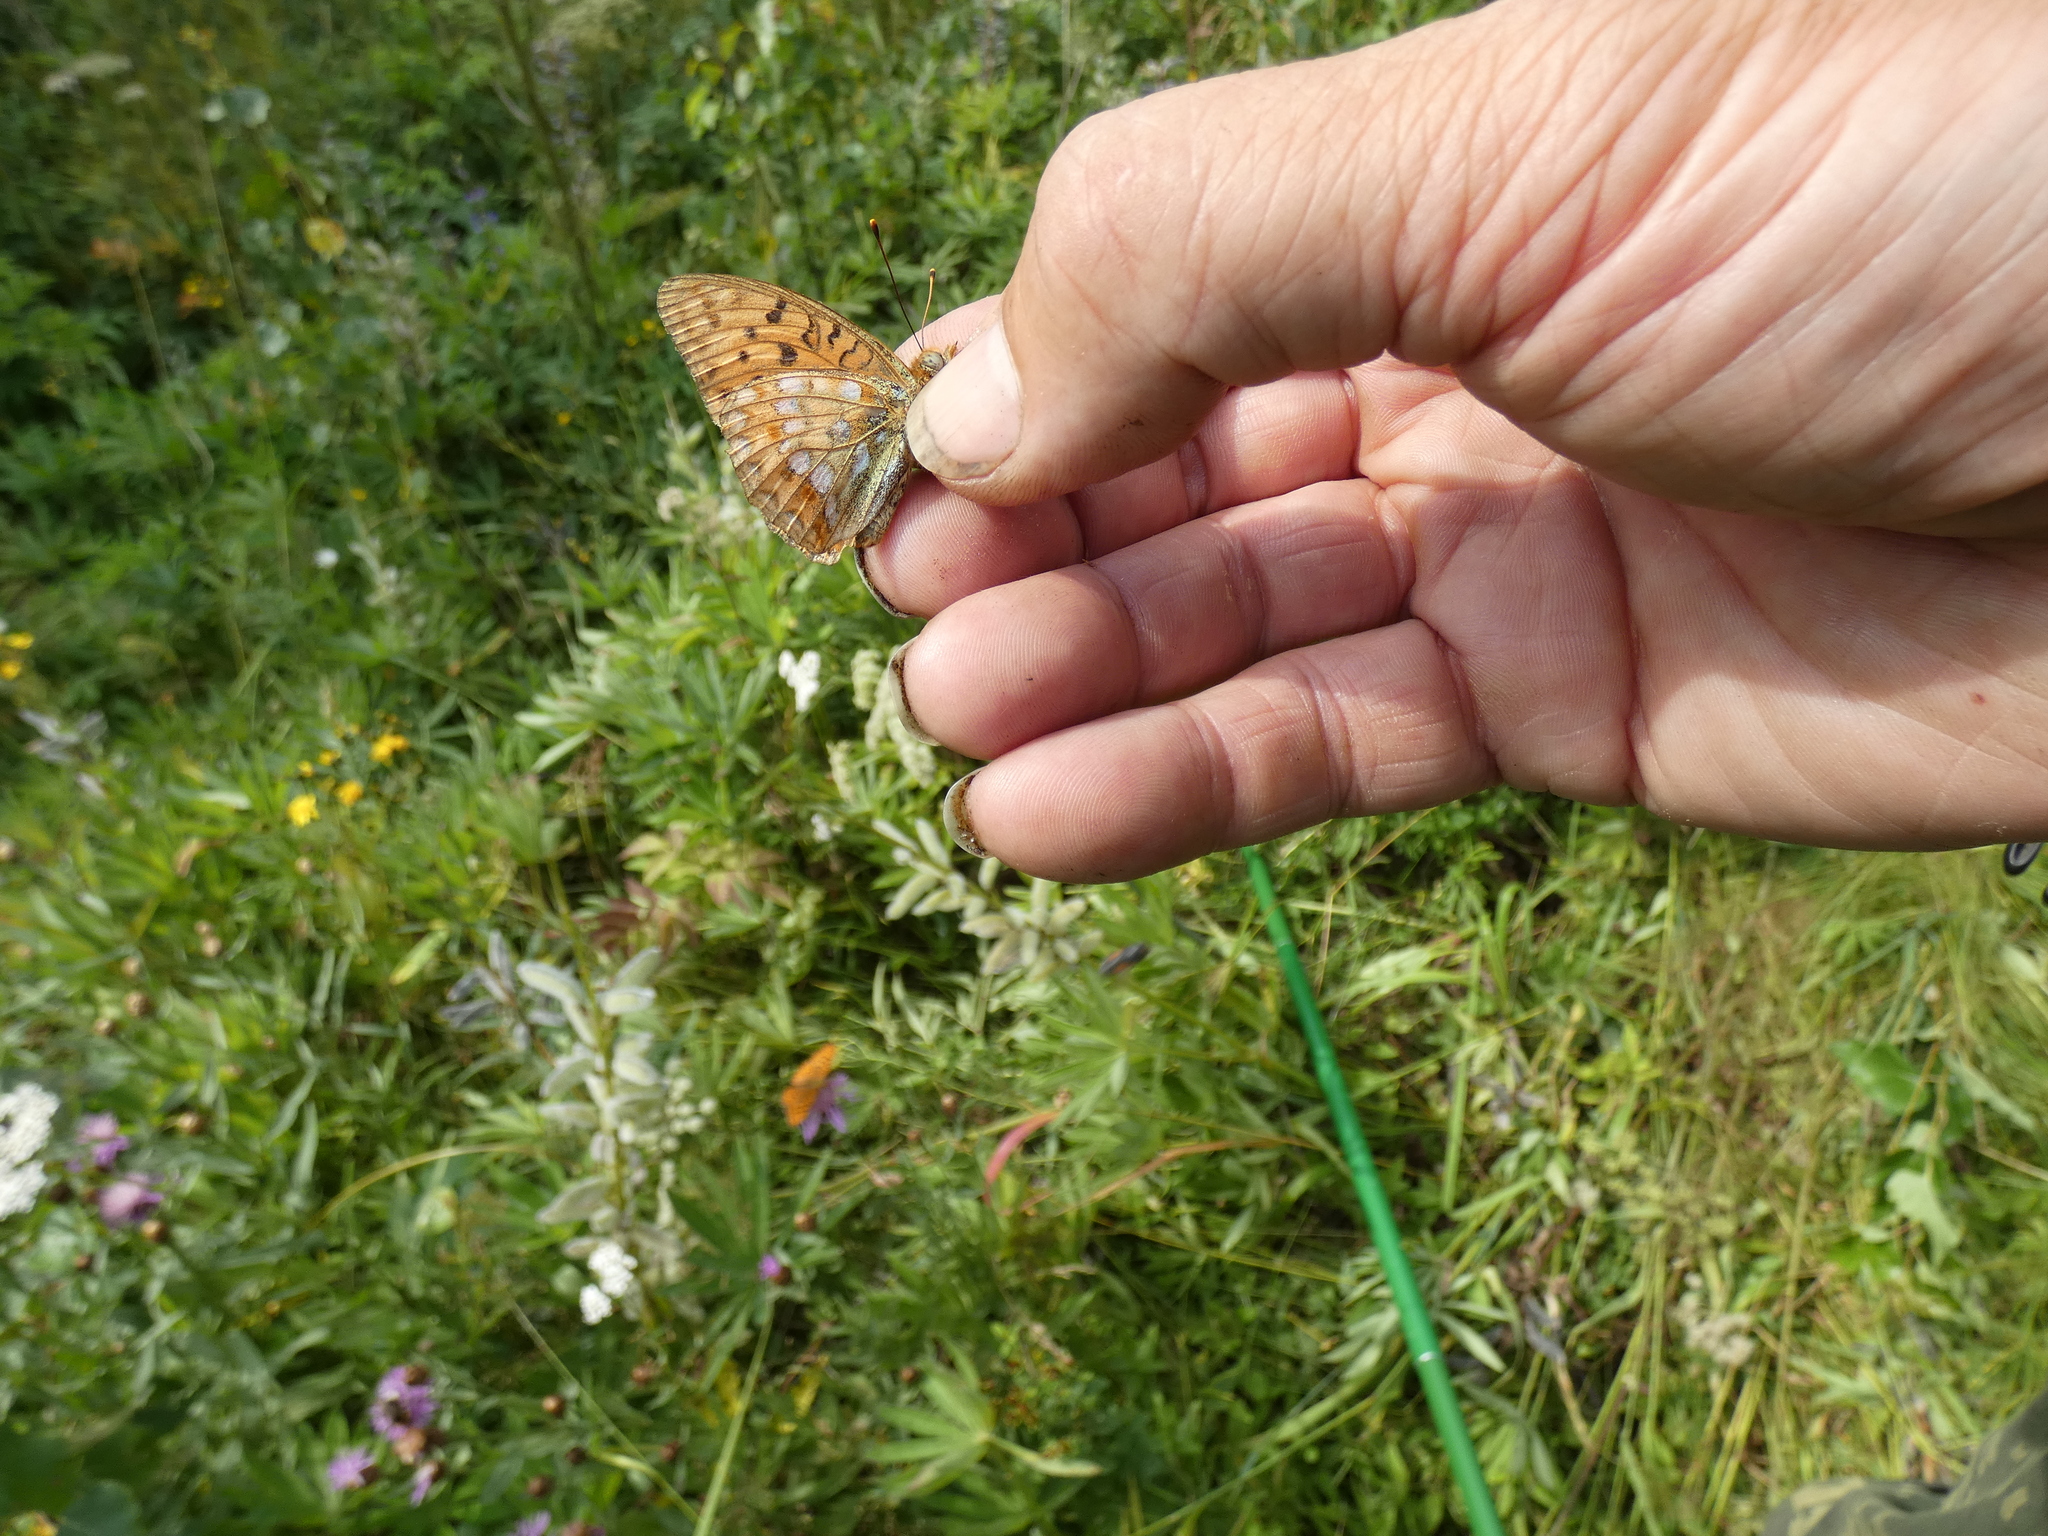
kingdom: Animalia
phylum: Arthropoda
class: Insecta
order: Lepidoptera
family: Nymphalidae
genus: Fabriciana
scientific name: Fabriciana adippe
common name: High brown fritillary
